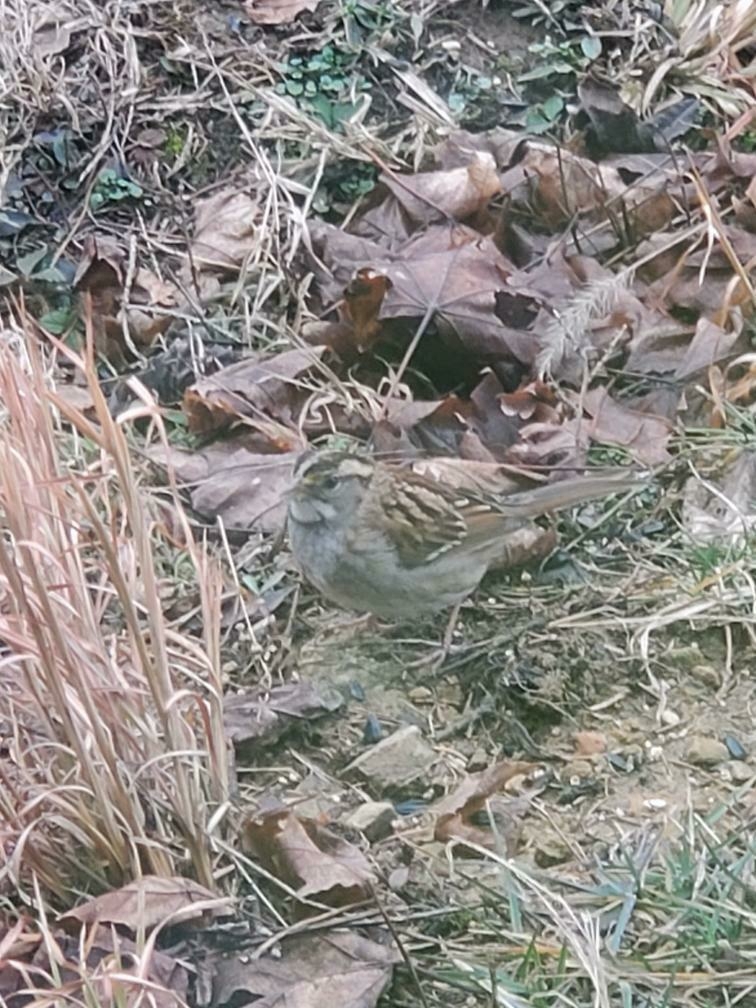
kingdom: Animalia
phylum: Chordata
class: Aves
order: Passeriformes
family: Passerellidae
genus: Zonotrichia
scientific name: Zonotrichia albicollis
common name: White-throated sparrow
